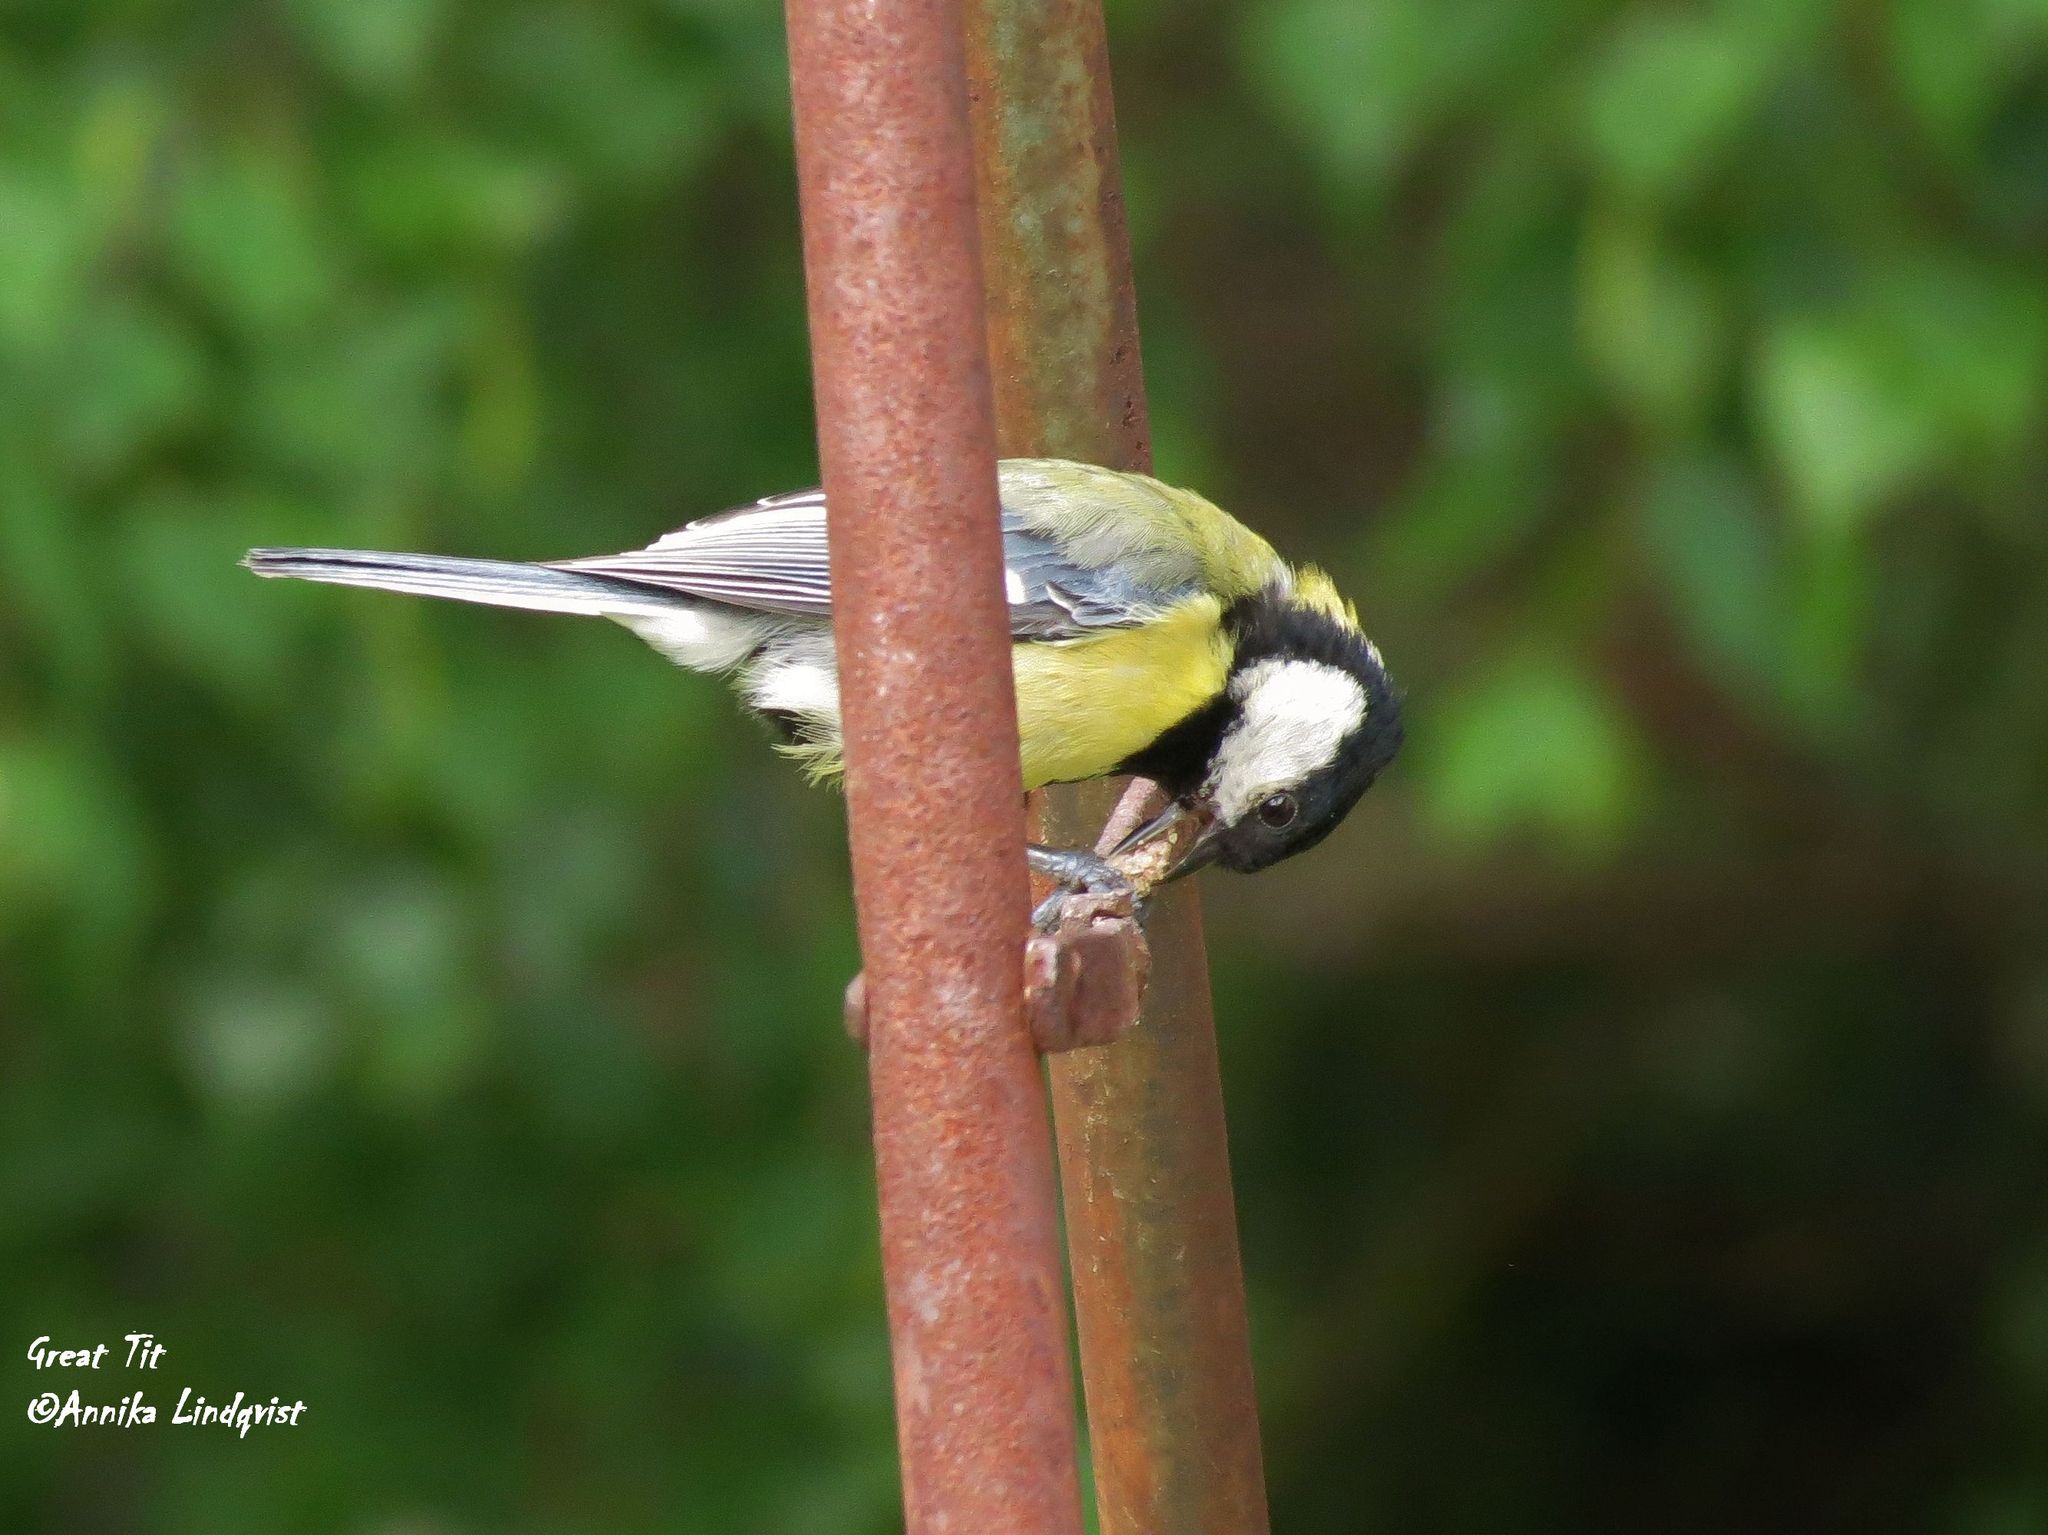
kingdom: Animalia
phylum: Chordata
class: Aves
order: Passeriformes
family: Paridae
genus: Parus
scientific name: Parus major
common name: Great tit
